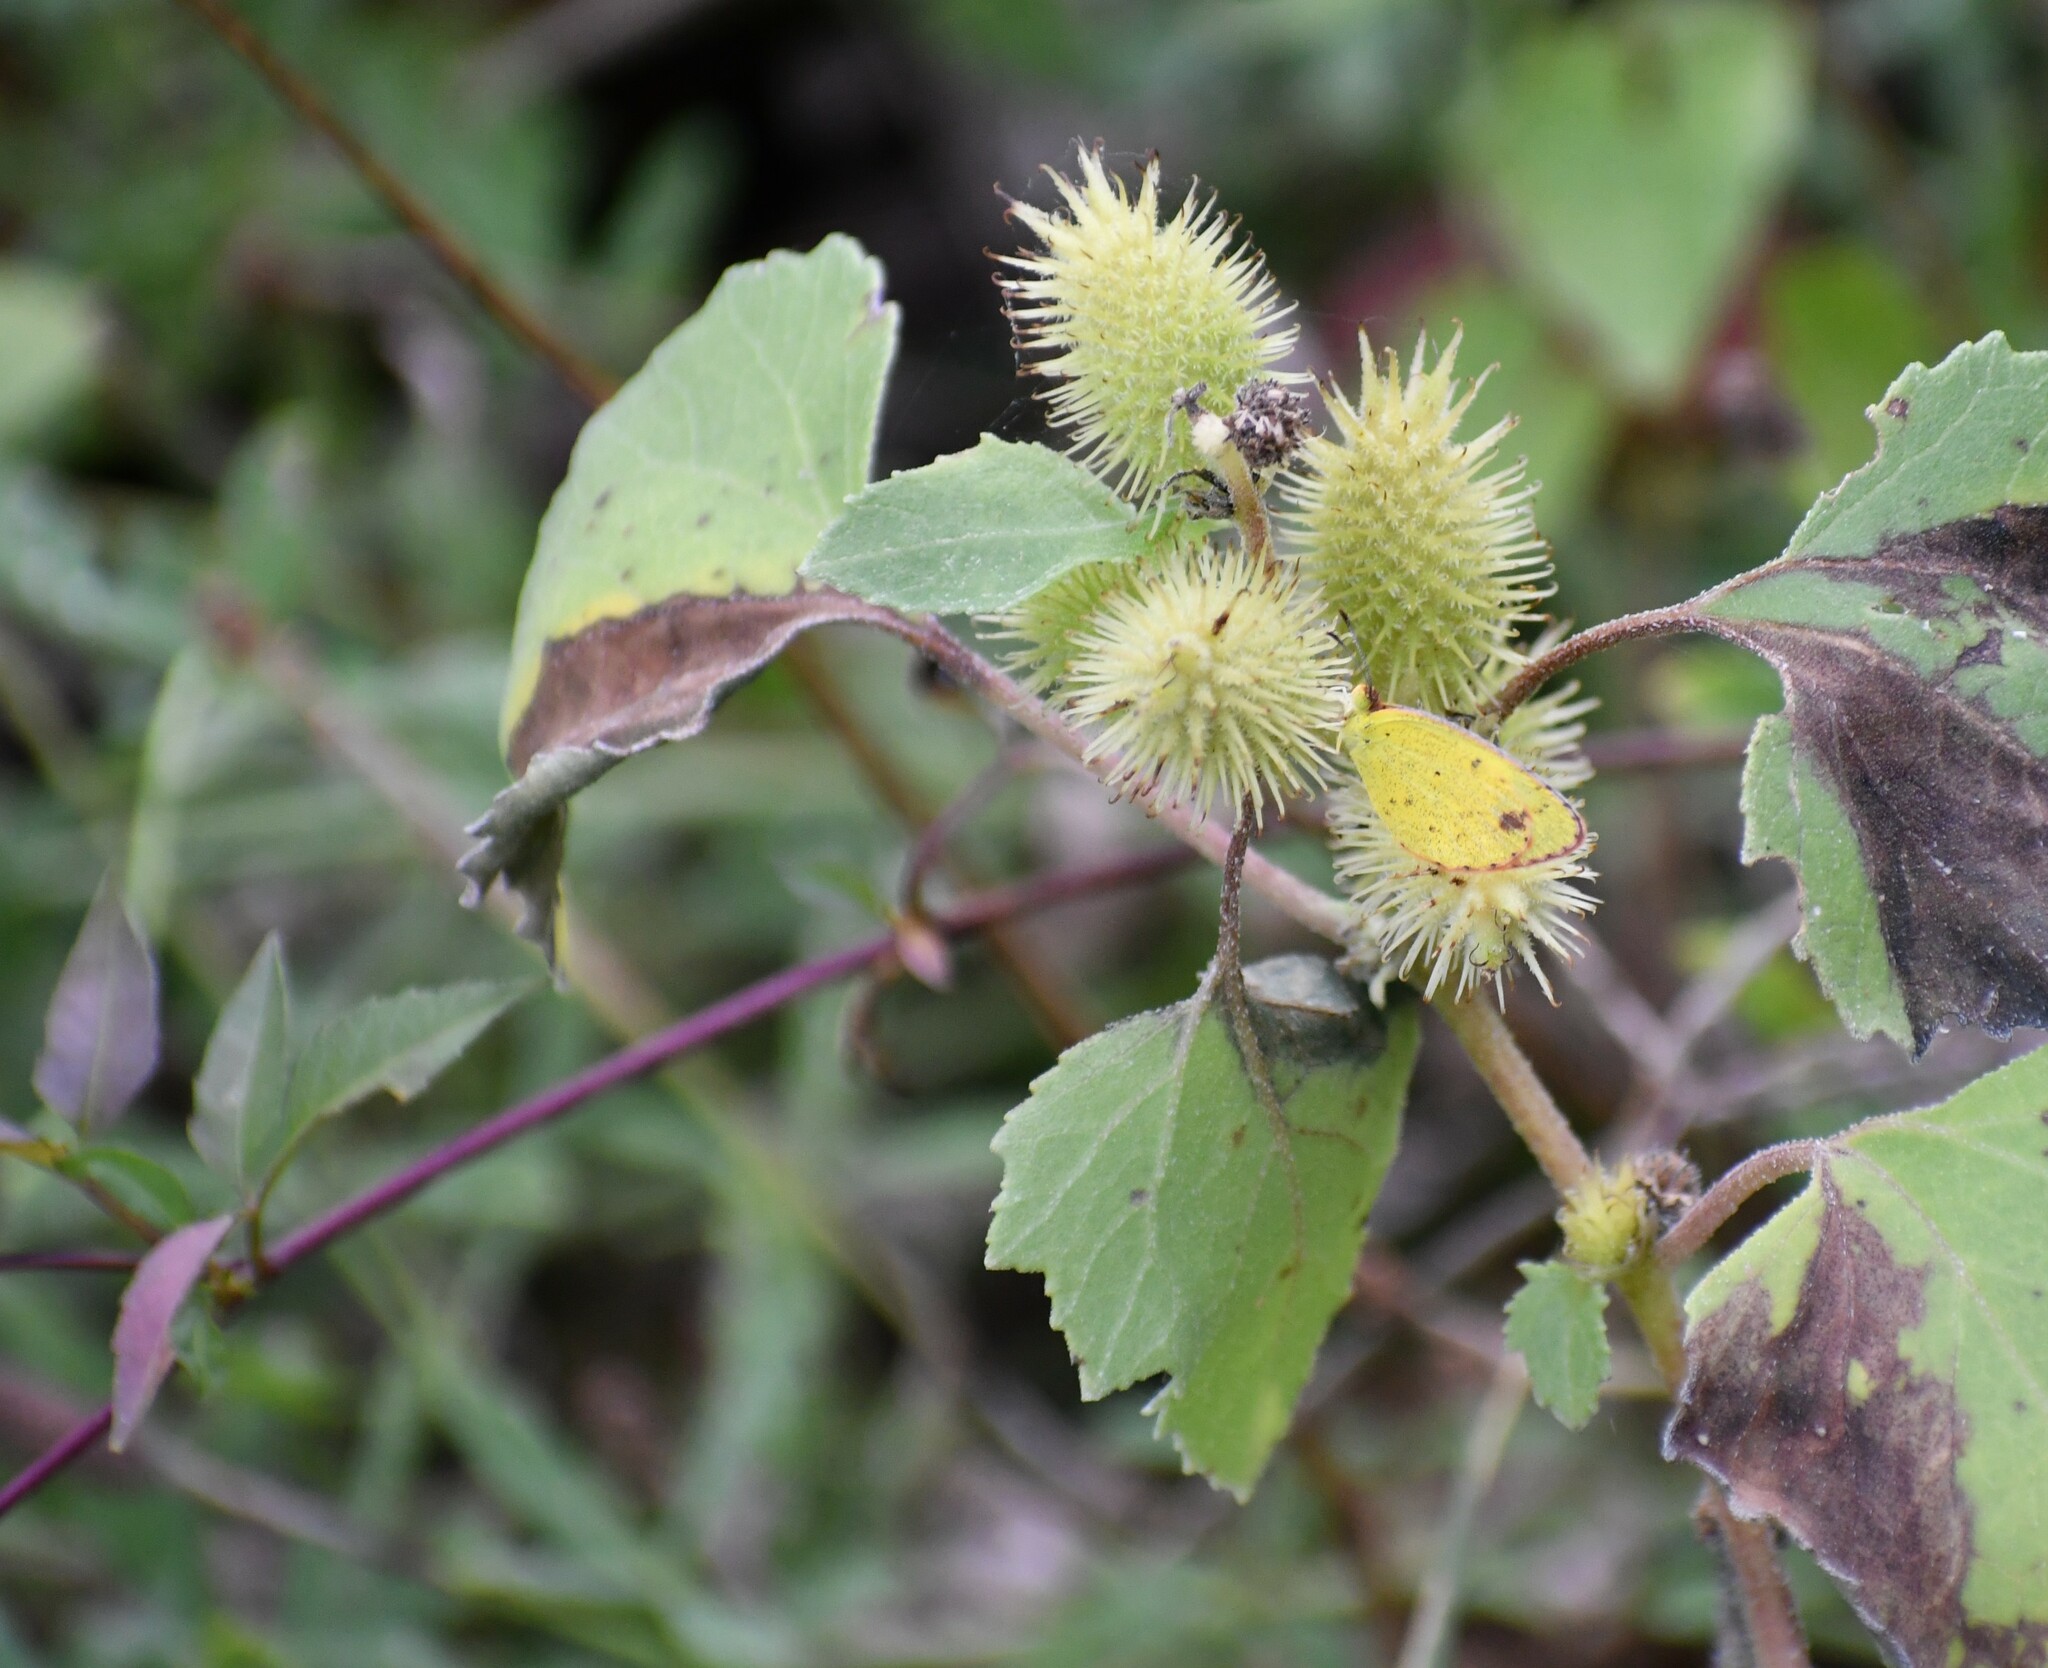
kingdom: Plantae
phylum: Tracheophyta
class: Magnoliopsida
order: Asterales
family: Asteraceae
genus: Xanthium
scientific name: Xanthium strumarium
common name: Rough cocklebur
